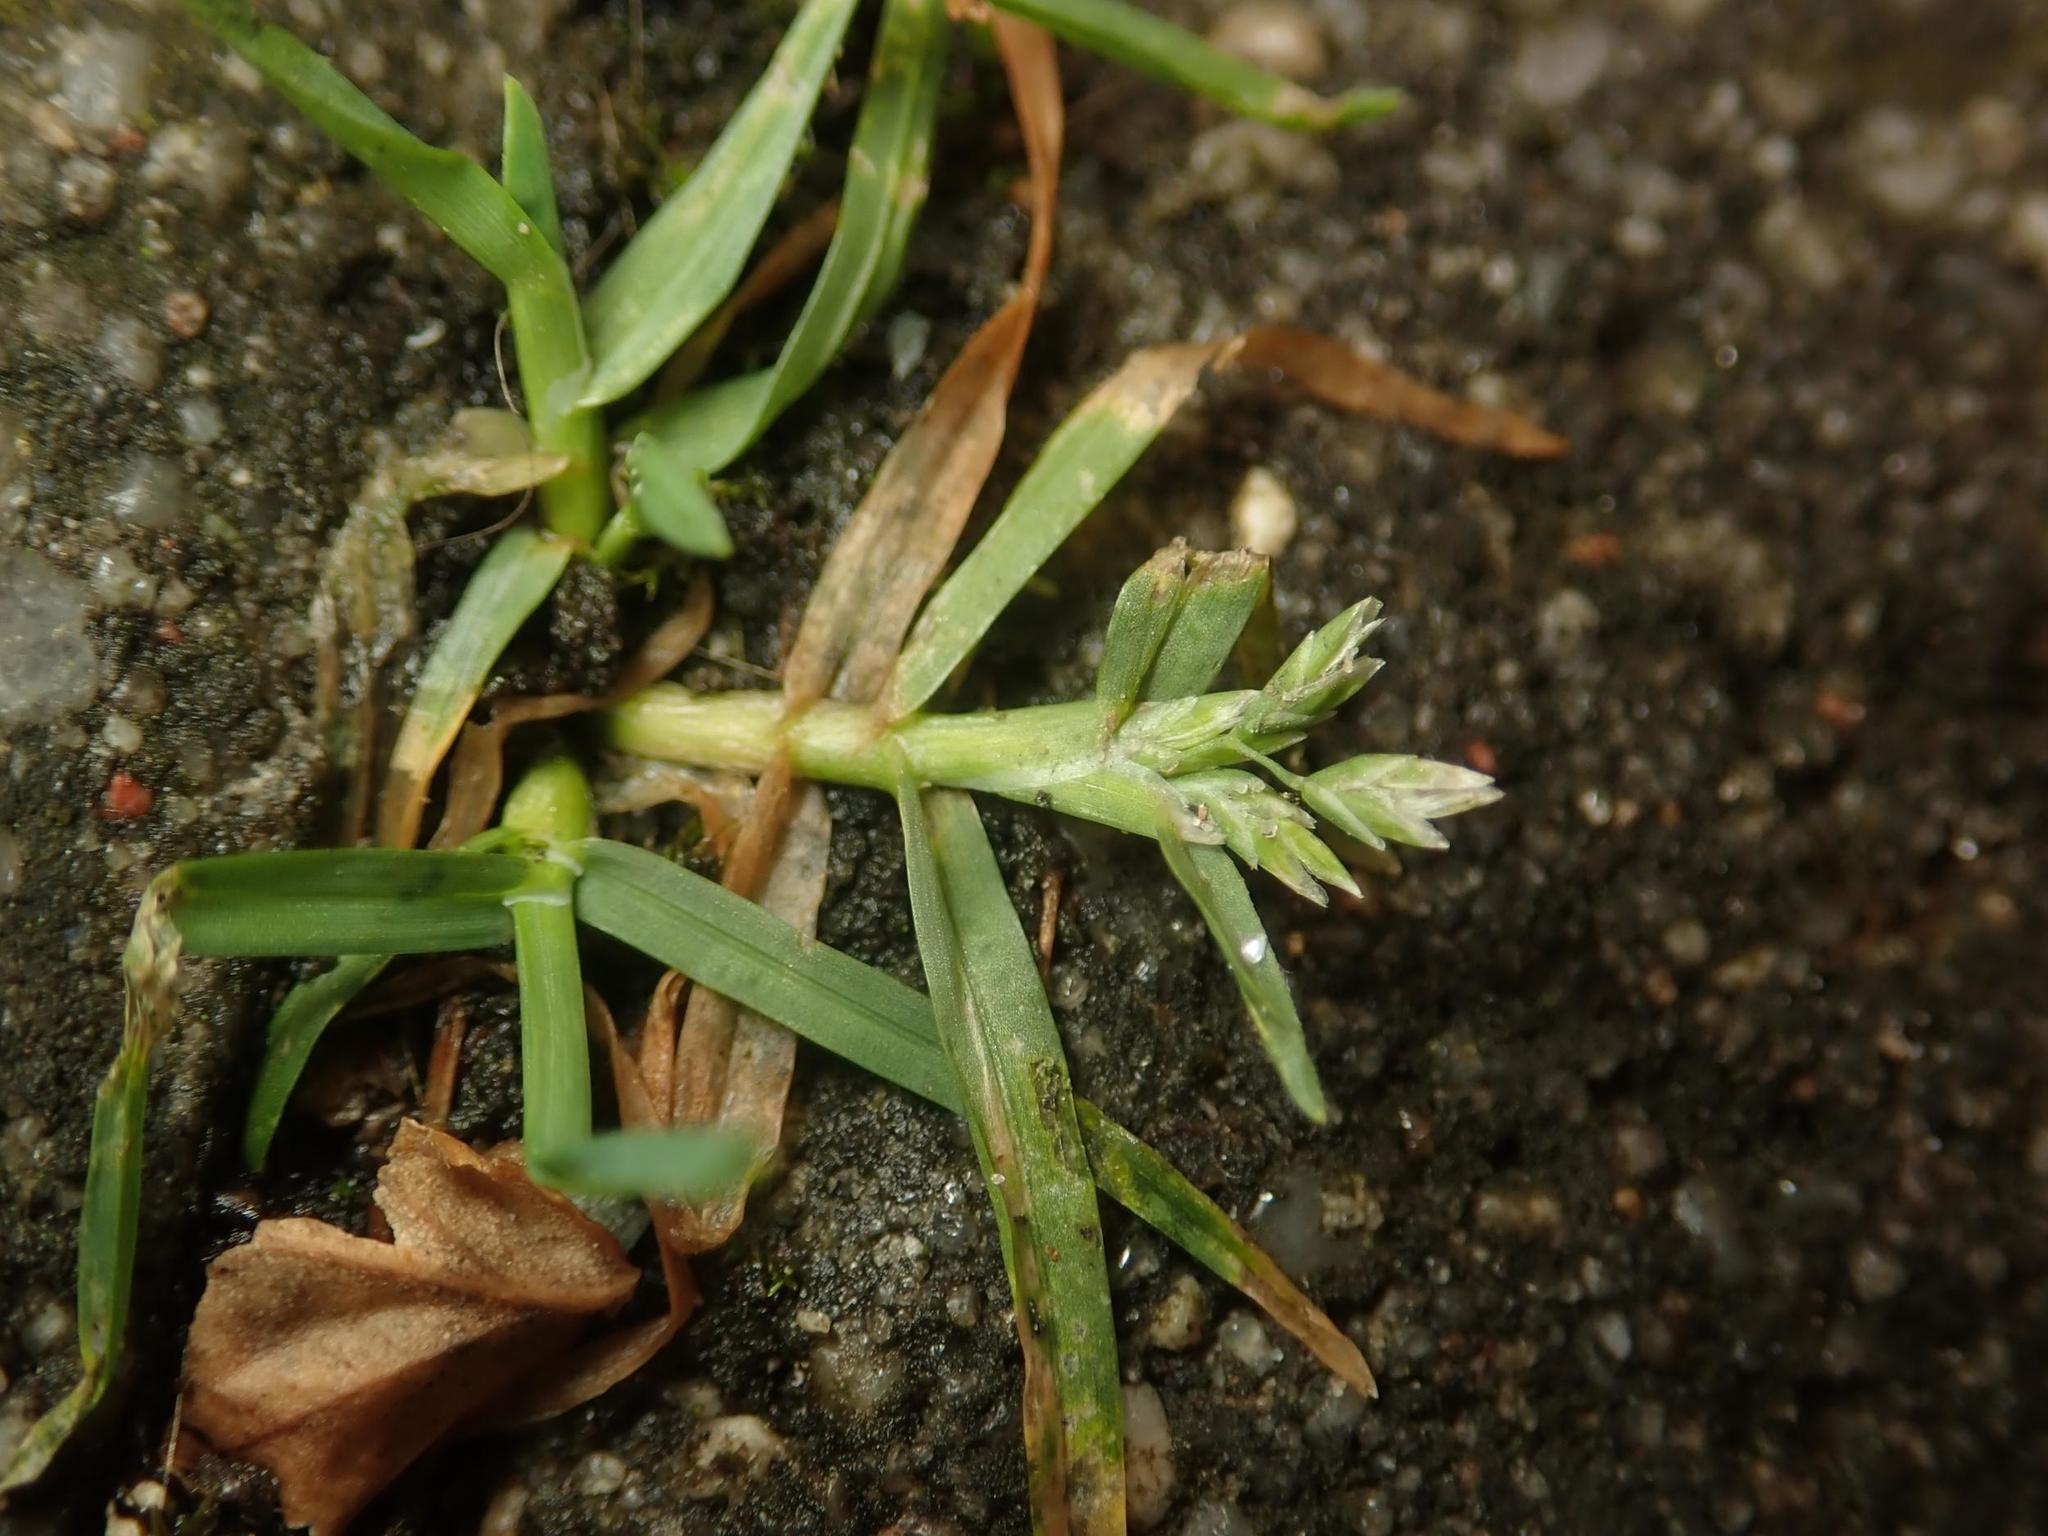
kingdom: Plantae
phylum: Tracheophyta
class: Liliopsida
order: Poales
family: Poaceae
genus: Poa
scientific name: Poa annua
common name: Annual bluegrass
